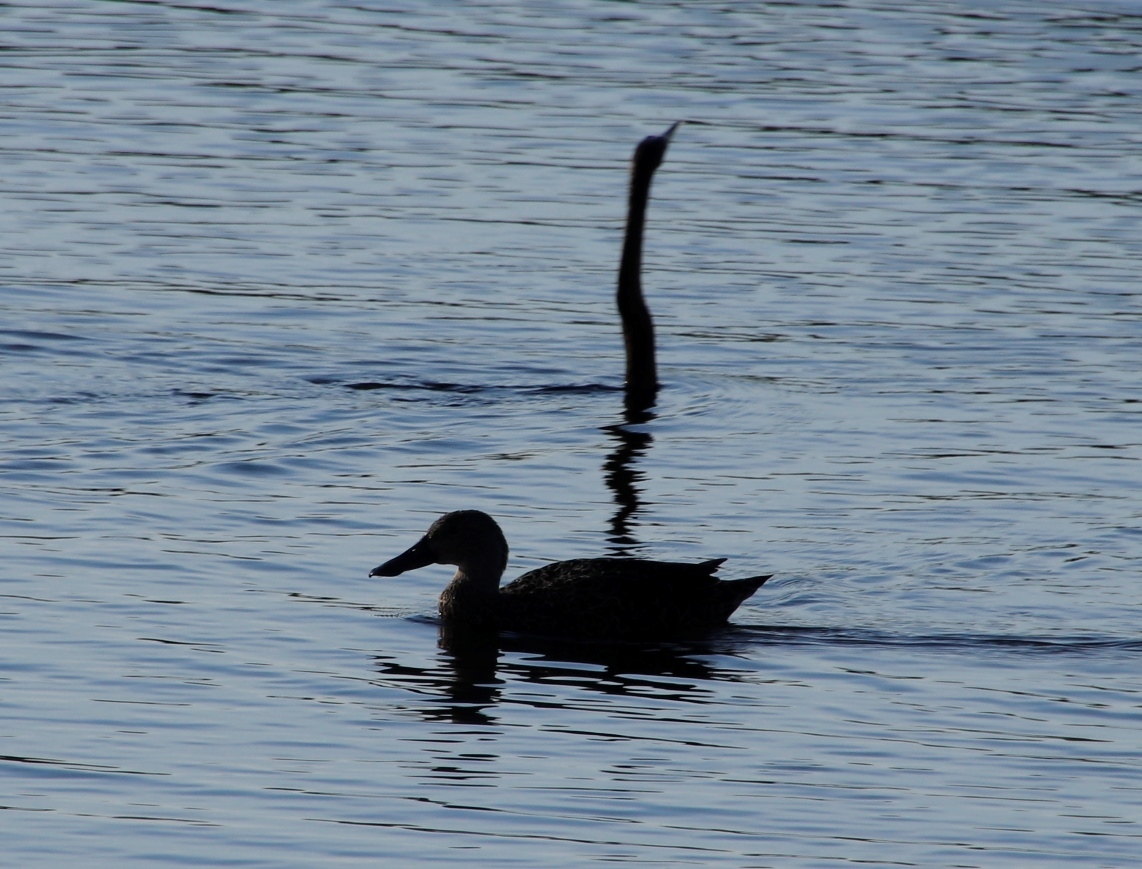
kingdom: Animalia
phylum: Chordata
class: Aves
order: Anseriformes
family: Anatidae
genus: Spatula
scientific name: Spatula smithii
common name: Cape shoveler
